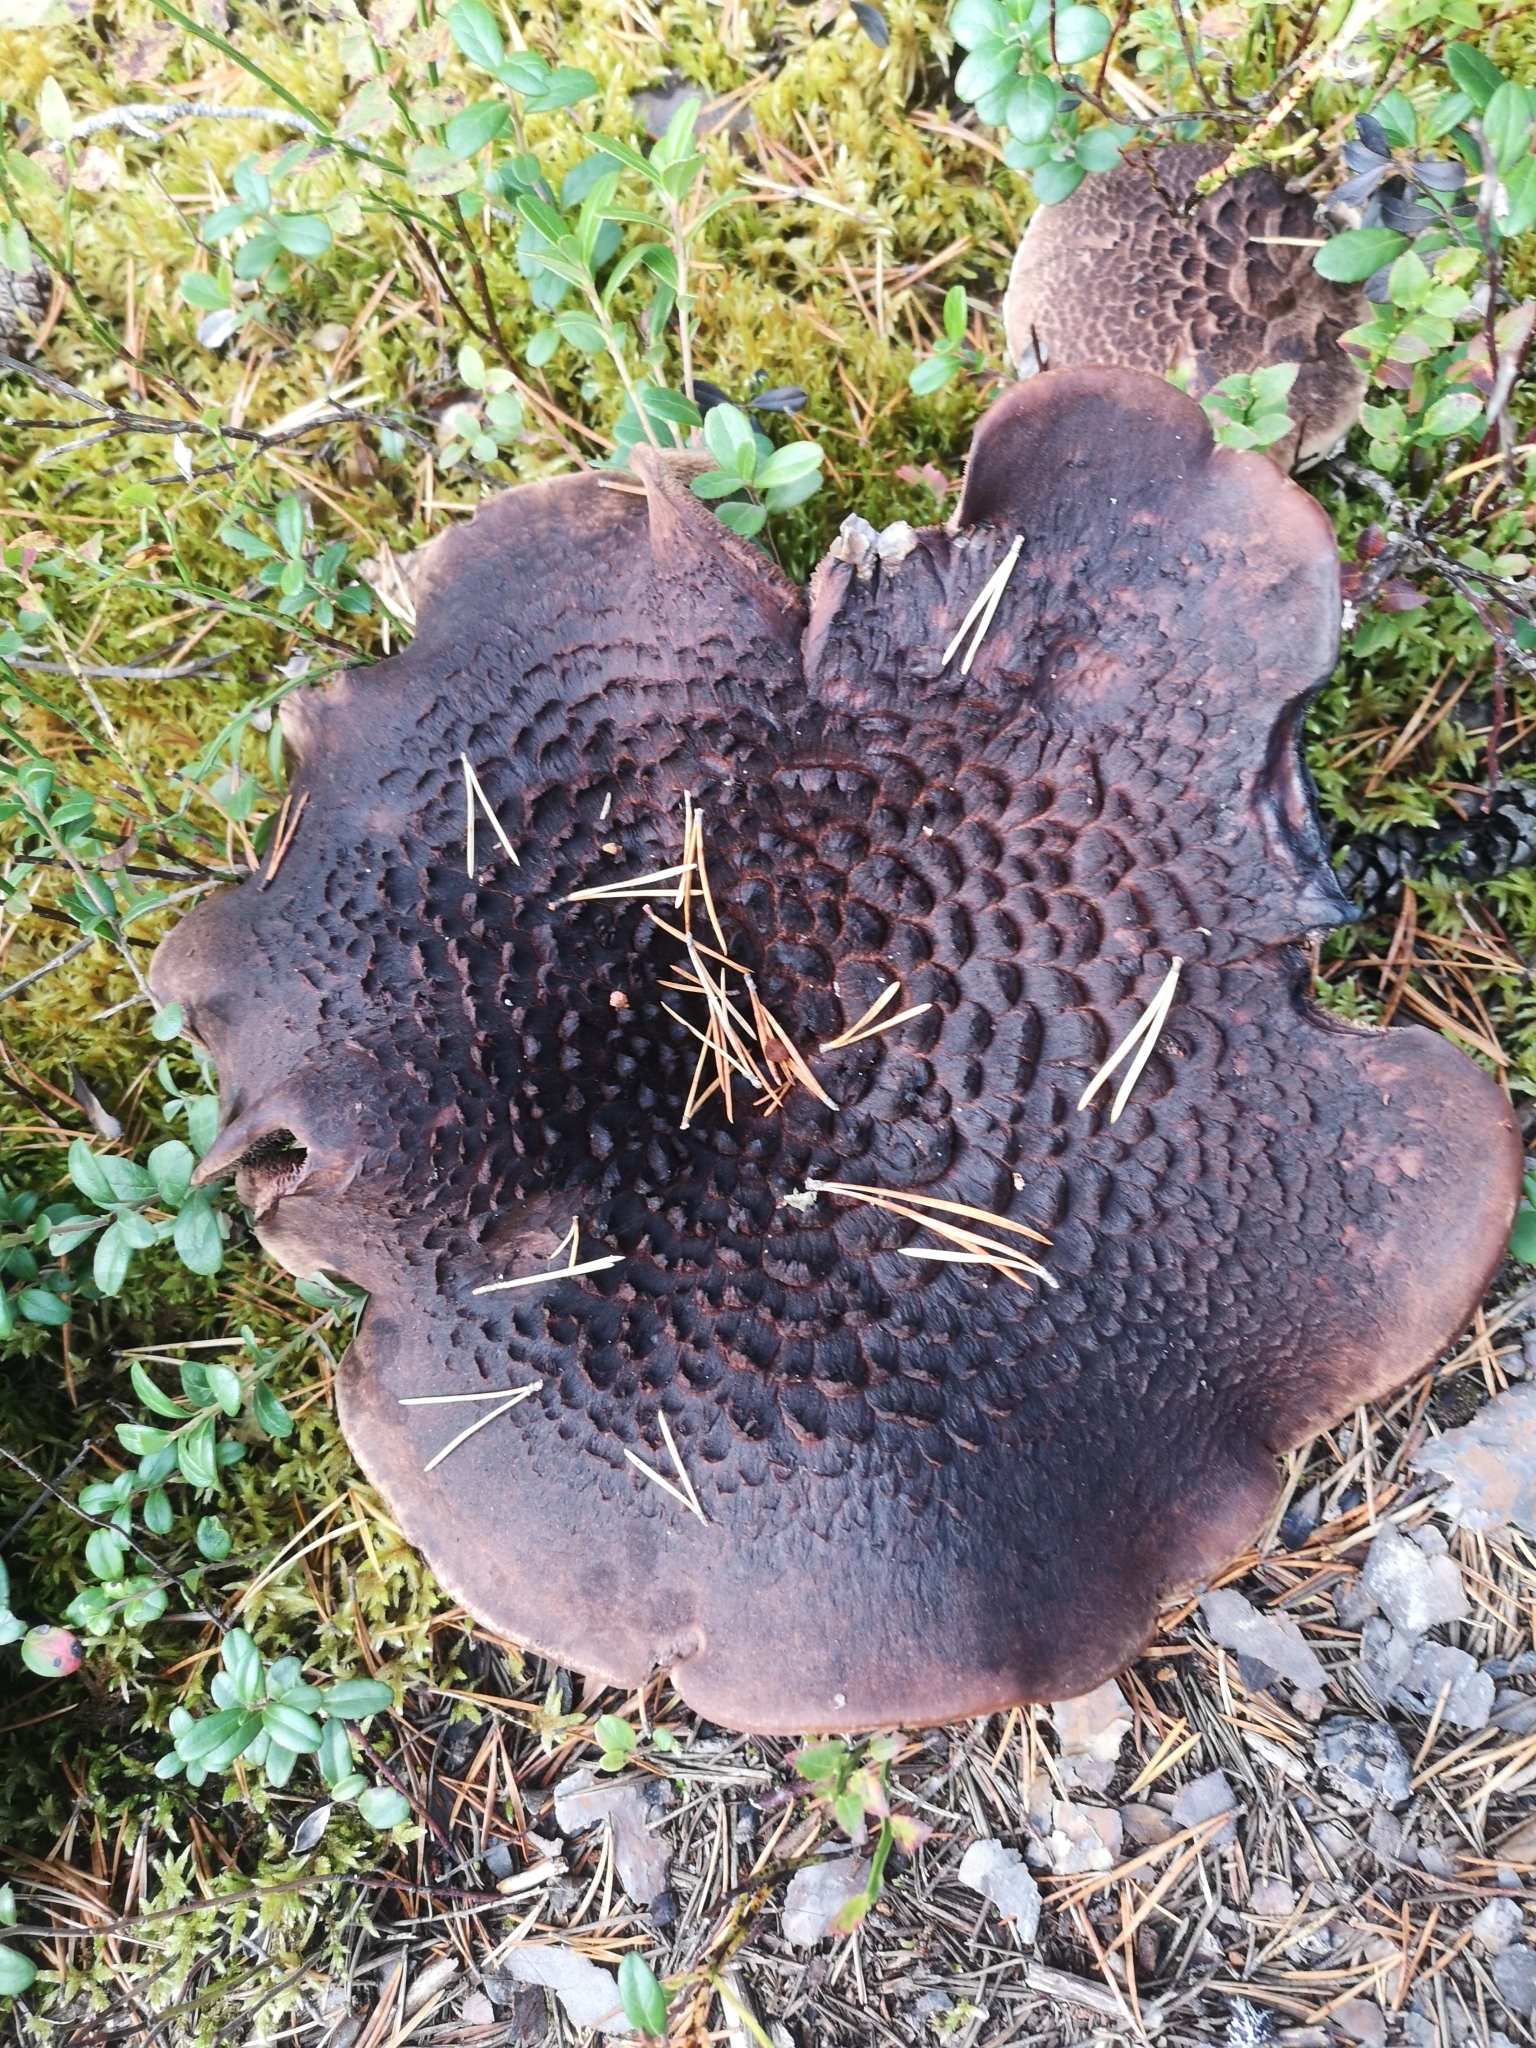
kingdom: Fungi
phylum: Basidiomycota
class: Agaricomycetes
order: Thelephorales
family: Bankeraceae
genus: Sarcodon
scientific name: Sarcodon squamosus
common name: Scaly tooth
